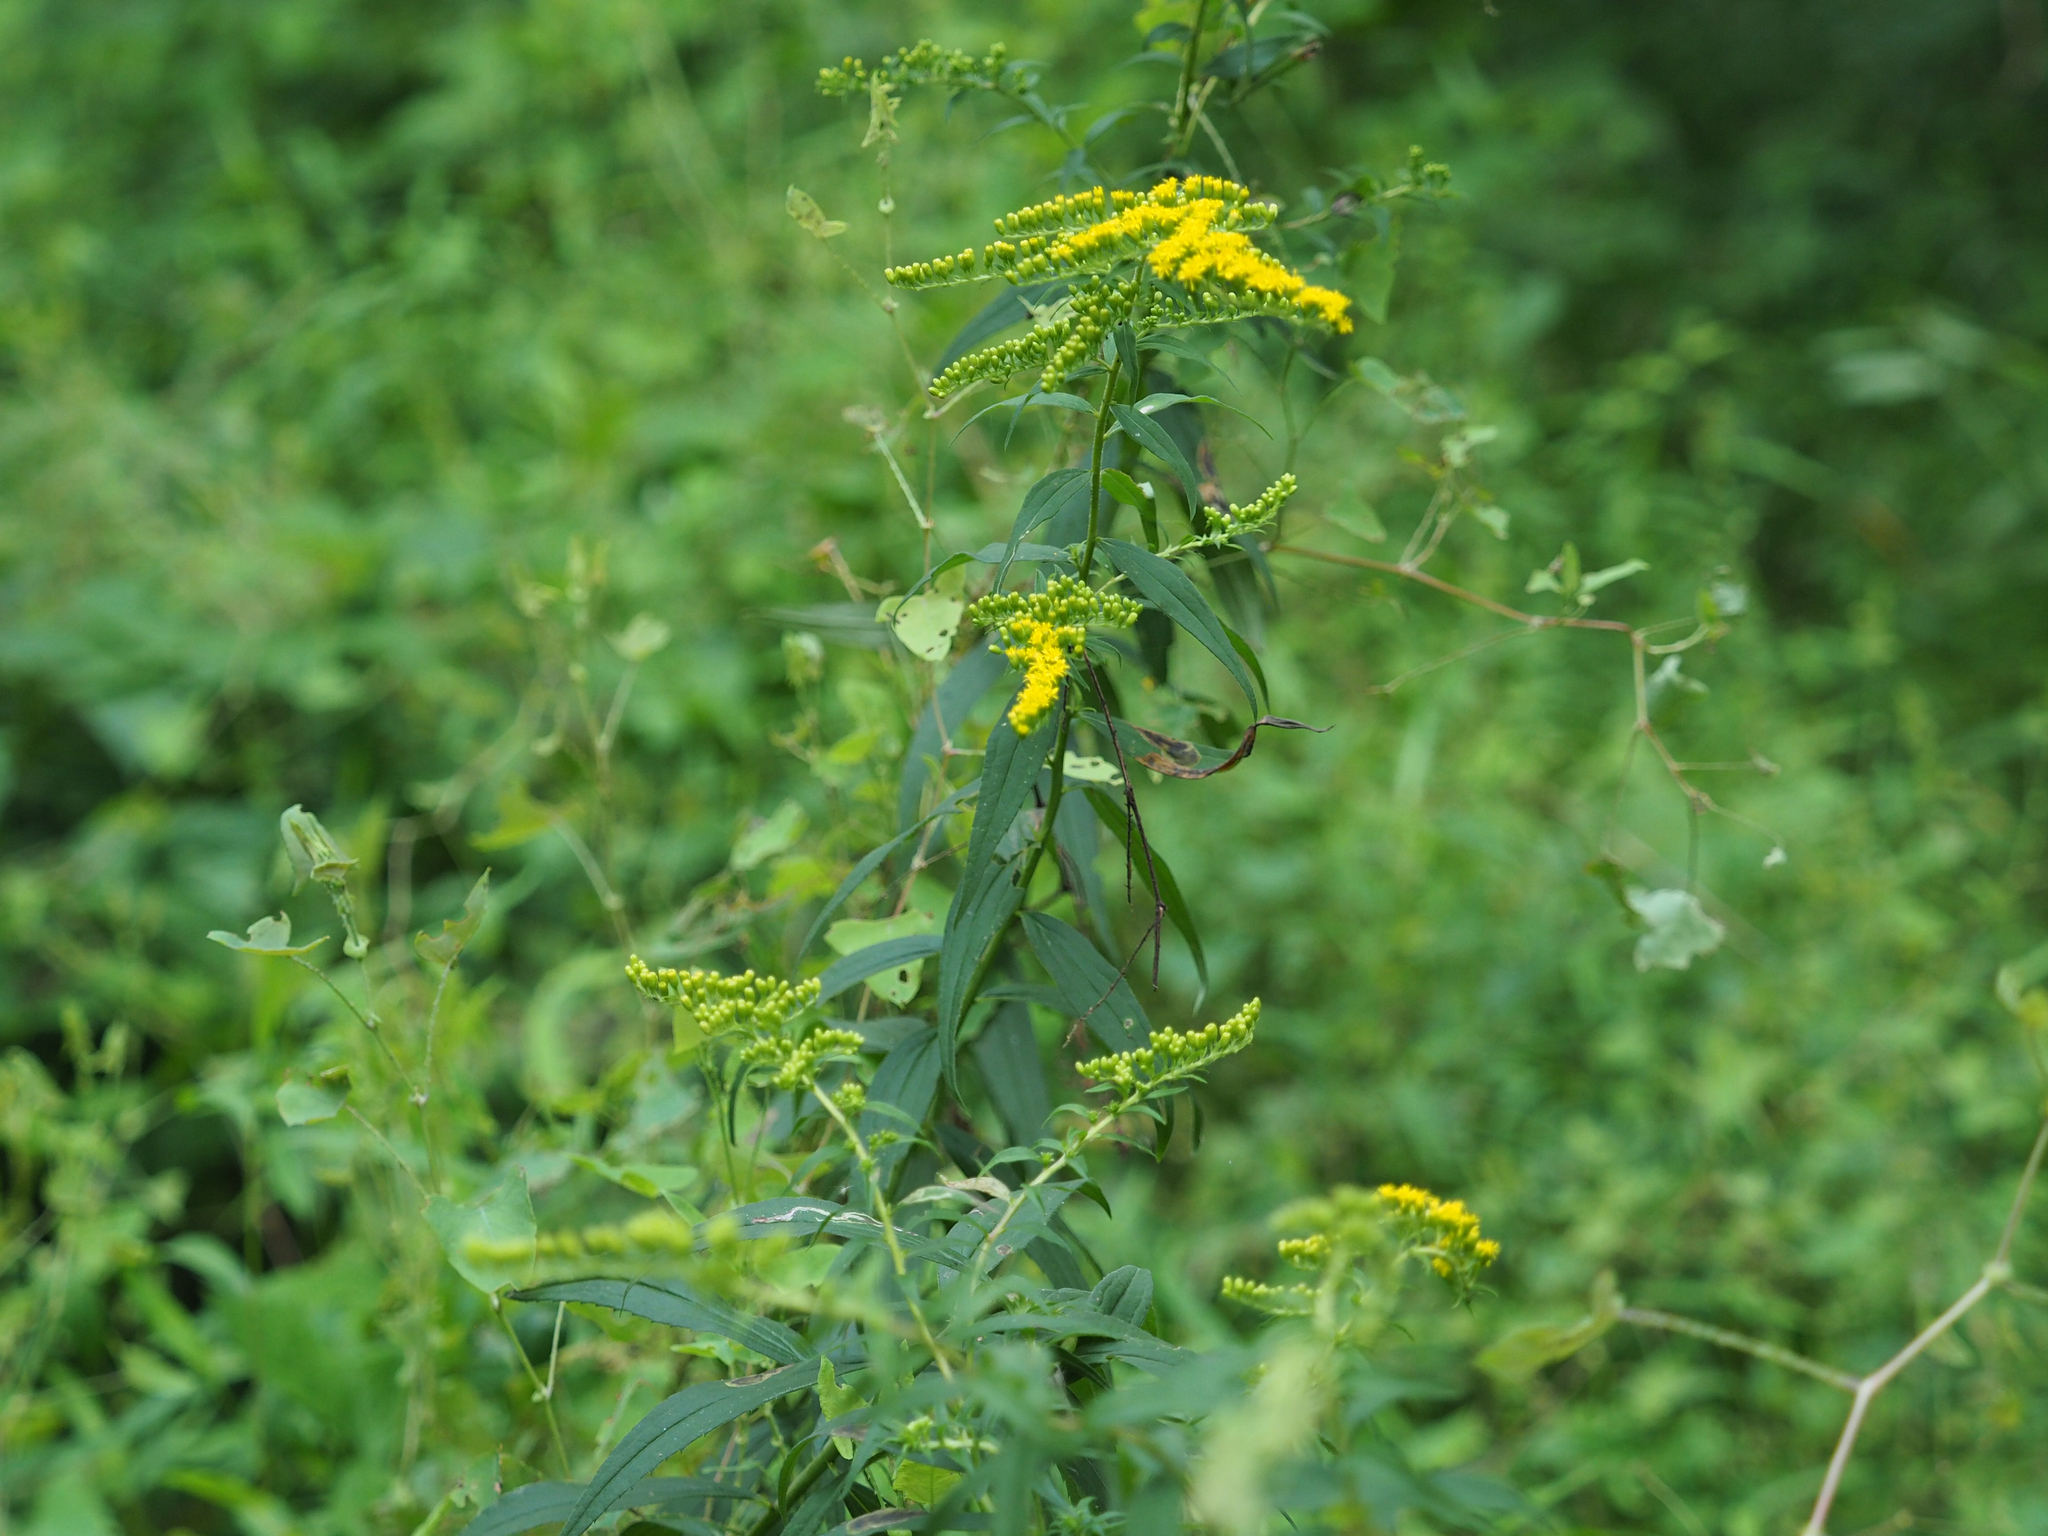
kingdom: Plantae
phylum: Tracheophyta
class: Magnoliopsida
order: Asterales
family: Asteraceae
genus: Solidago
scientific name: Solidago juncea
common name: Early goldenrod
